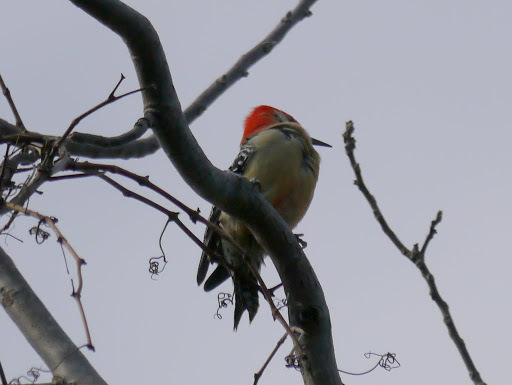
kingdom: Animalia
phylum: Chordata
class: Aves
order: Piciformes
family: Picidae
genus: Melanerpes
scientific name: Melanerpes carolinus
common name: Red-bellied woodpecker
